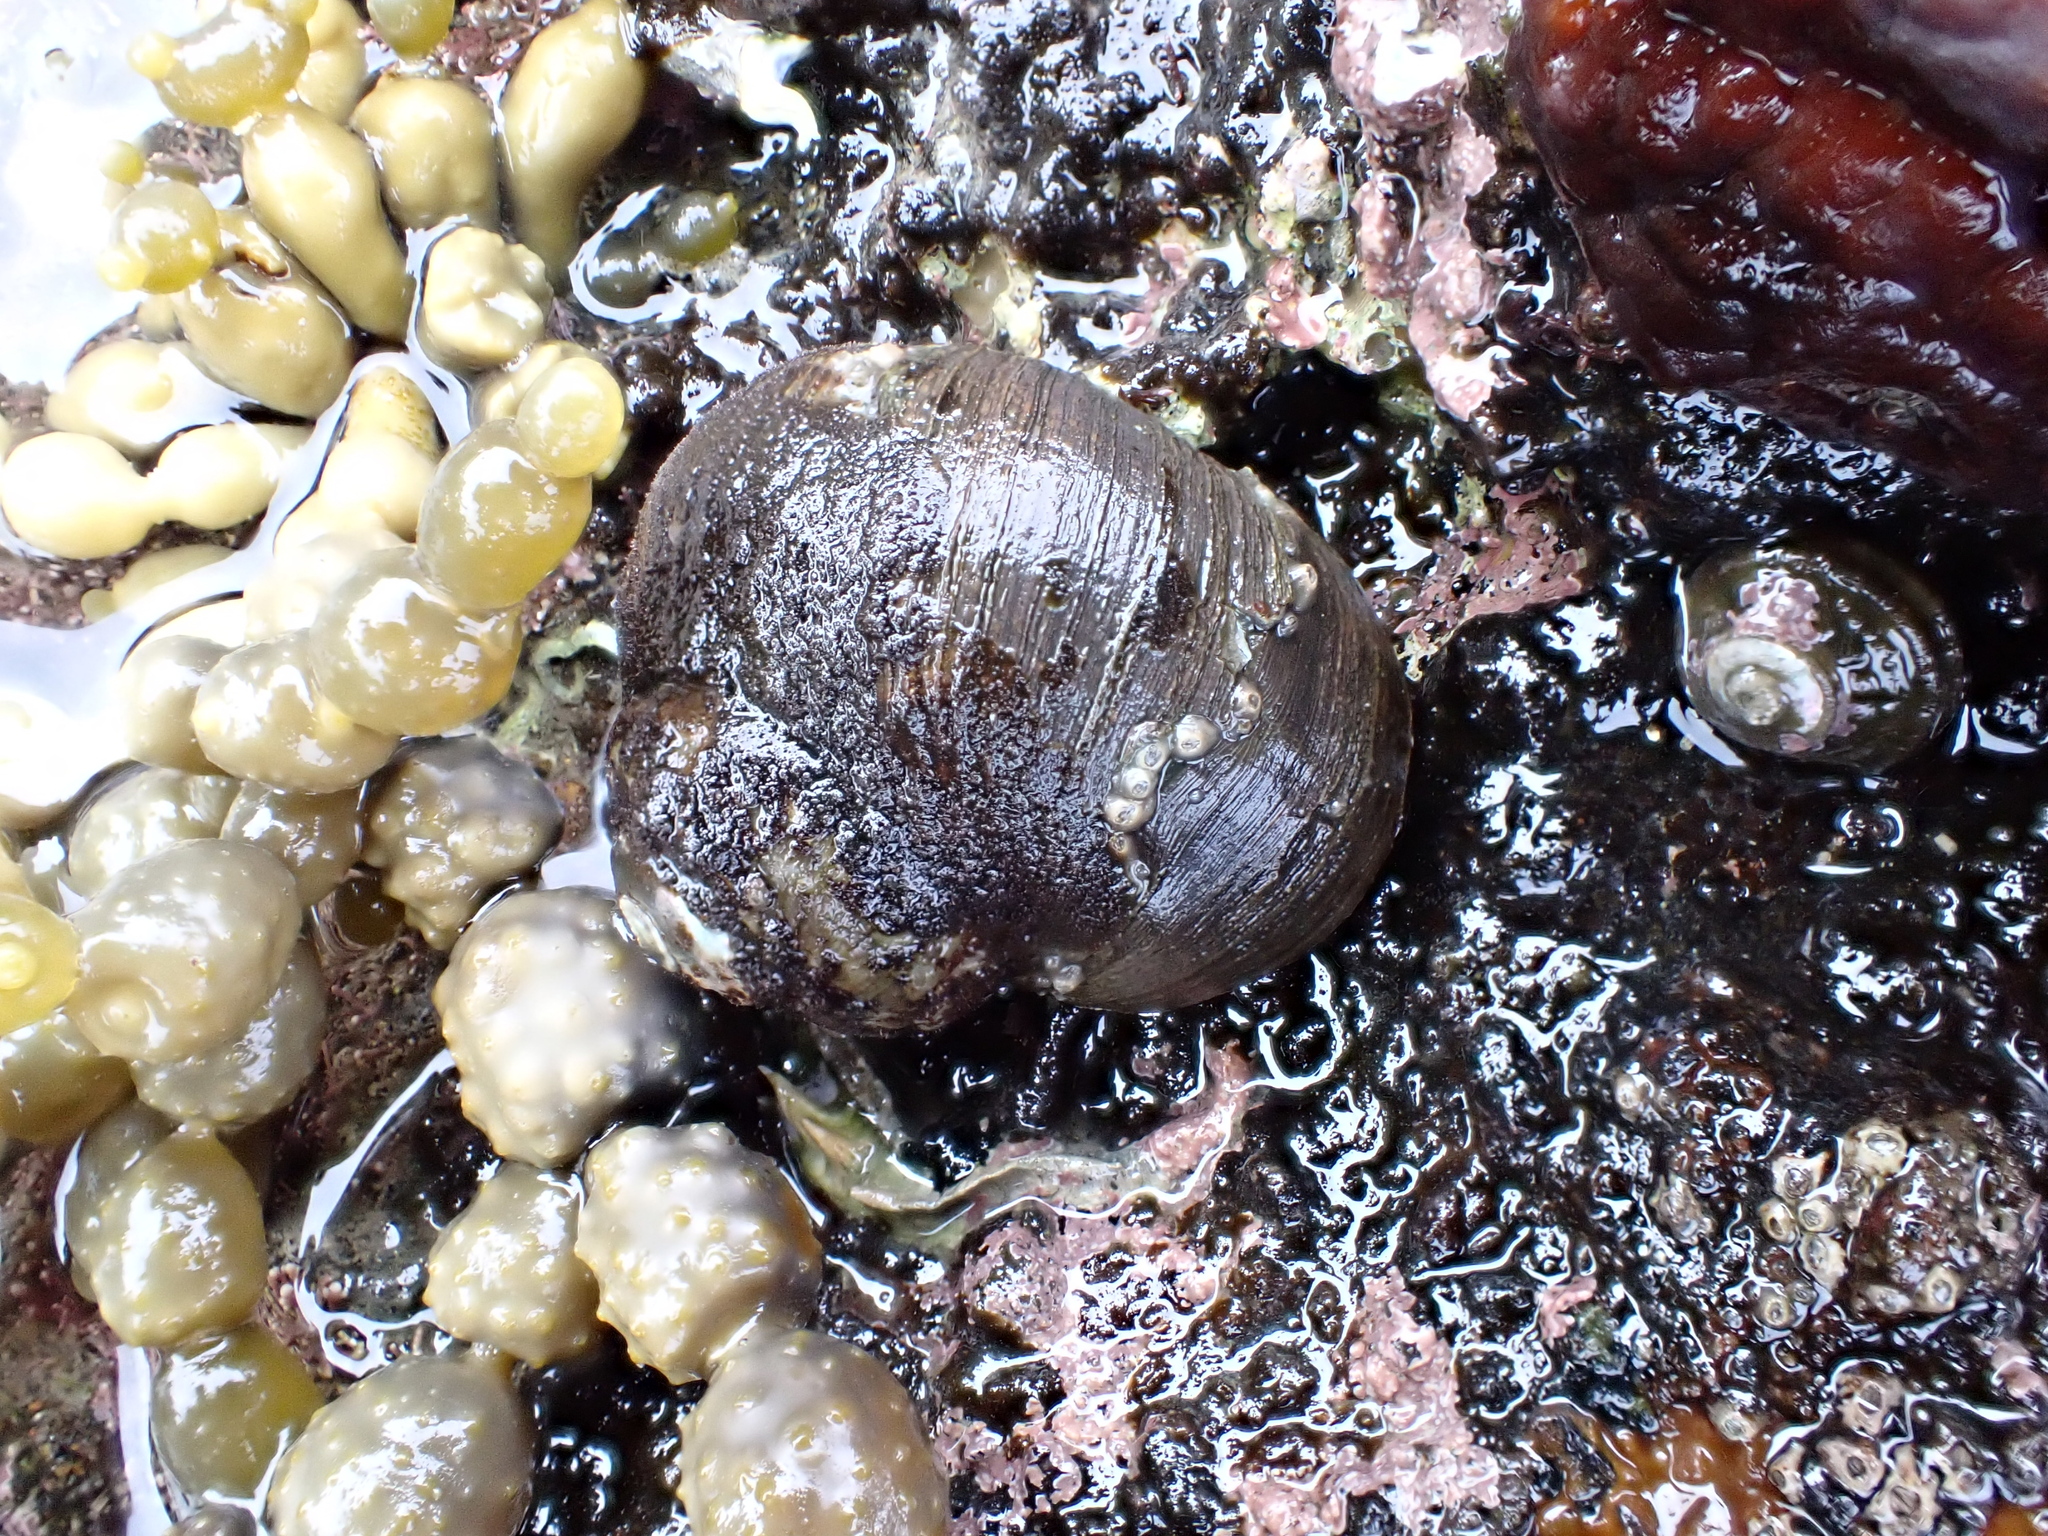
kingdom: Animalia
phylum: Mollusca
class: Gastropoda
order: Trochida
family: Turbinidae
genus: Lunella
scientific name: Lunella smaragda
